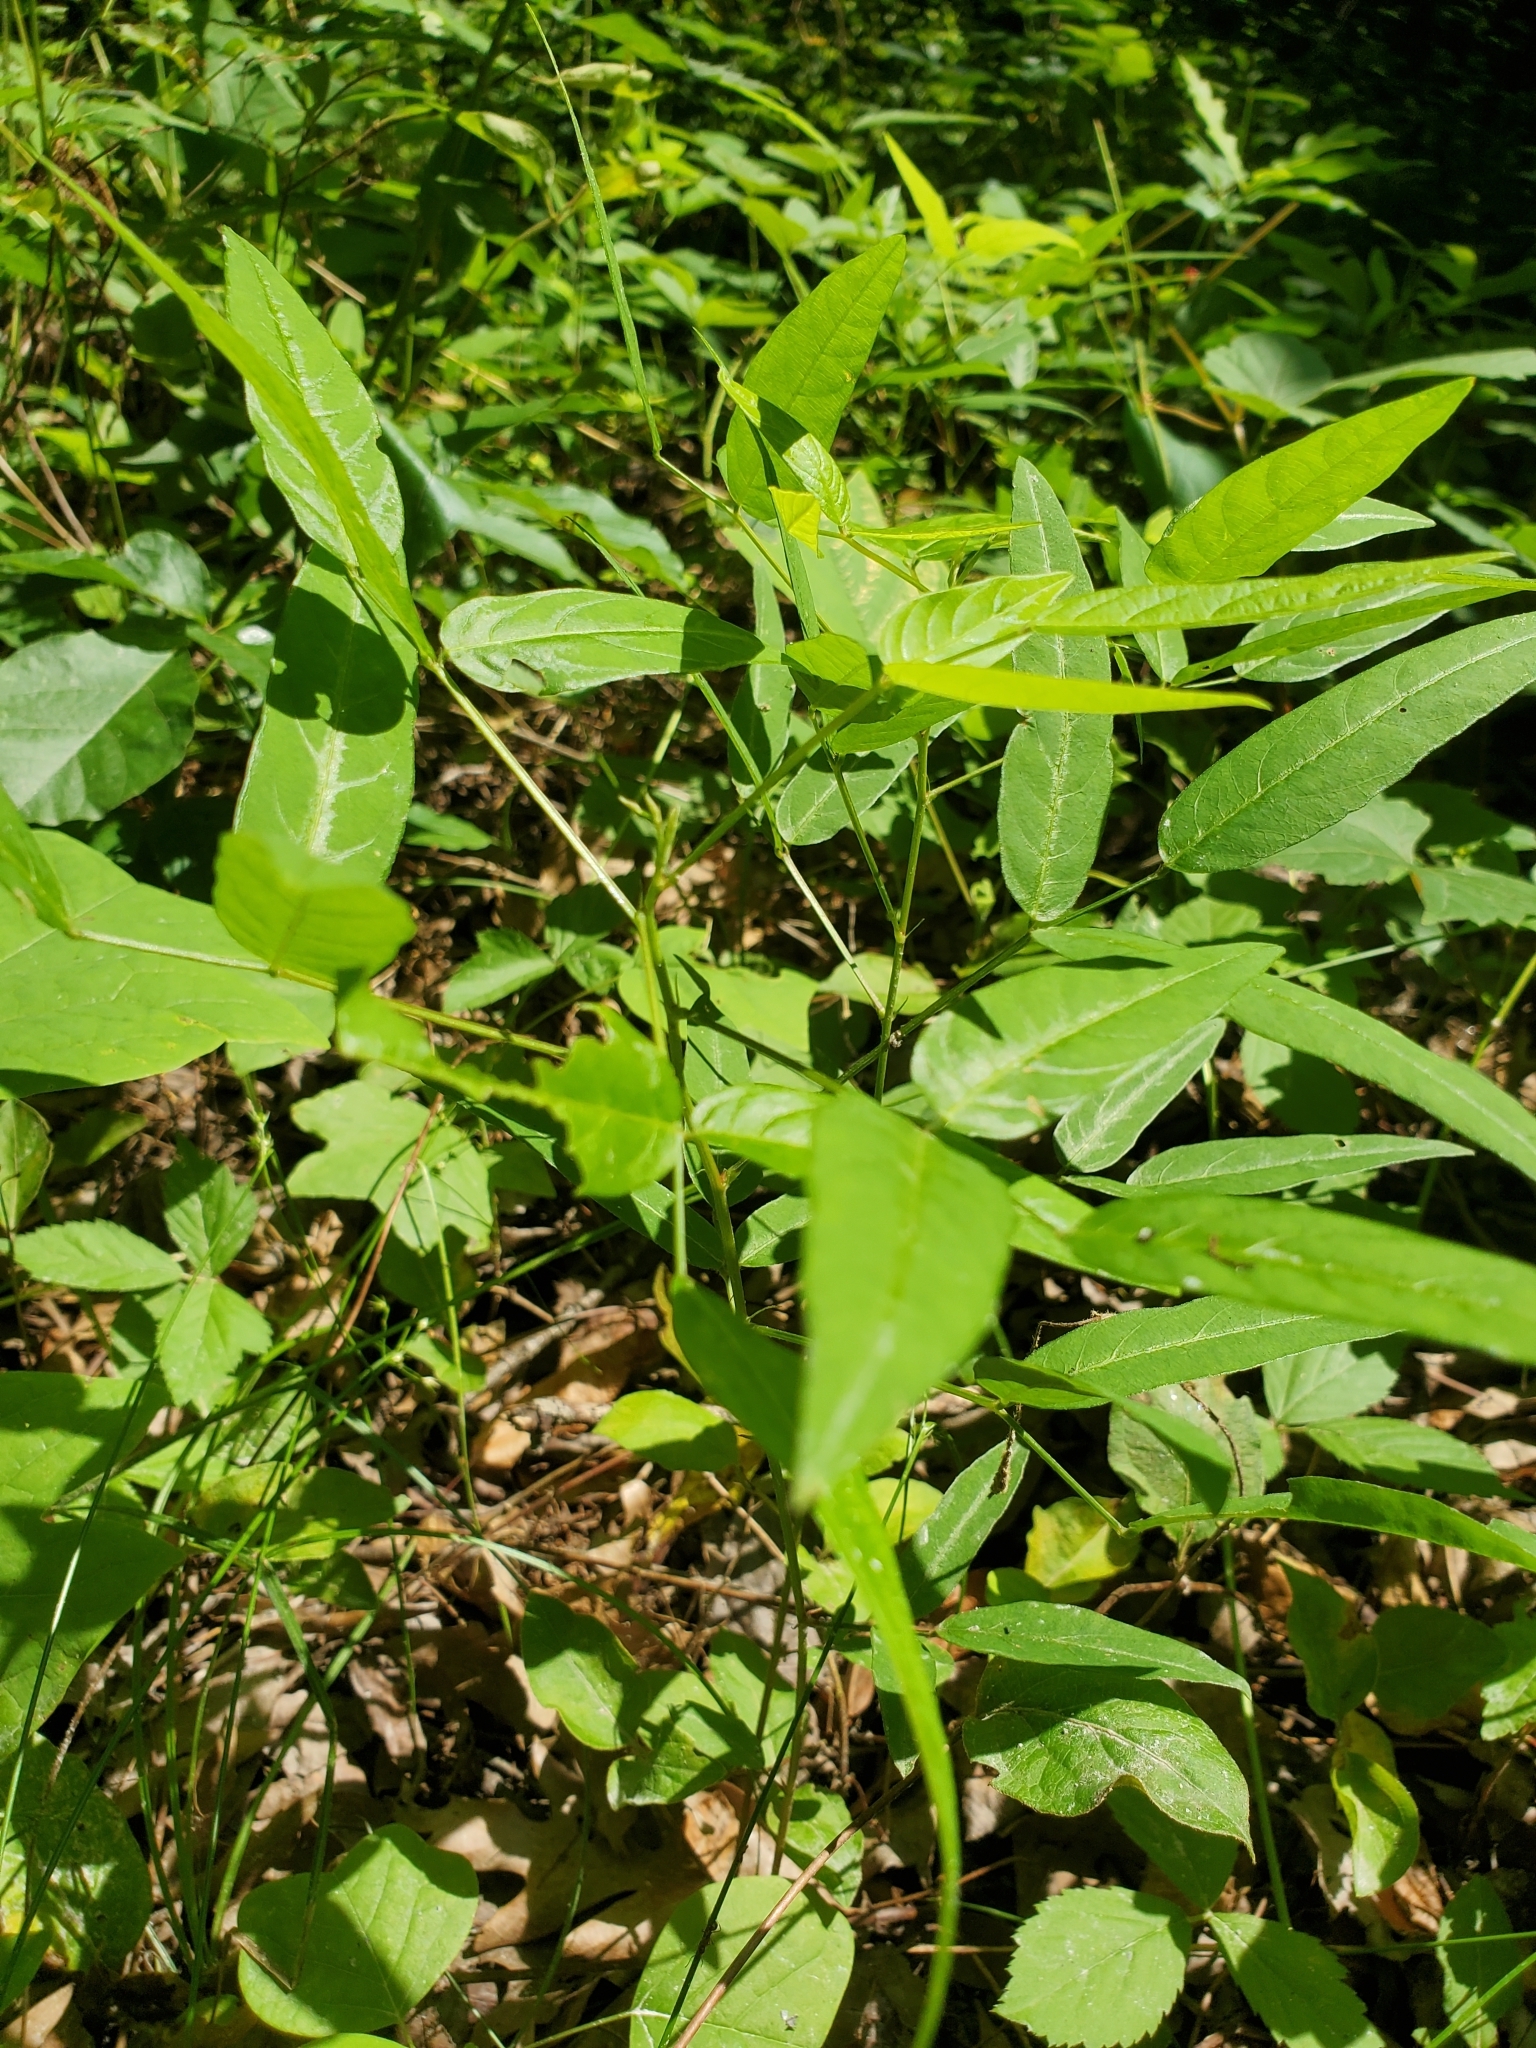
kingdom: Plantae
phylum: Tracheophyta
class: Magnoliopsida
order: Fabales
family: Fabaceae
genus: Desmodium
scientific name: Desmodium paniculatum
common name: Panicled tick-clover
